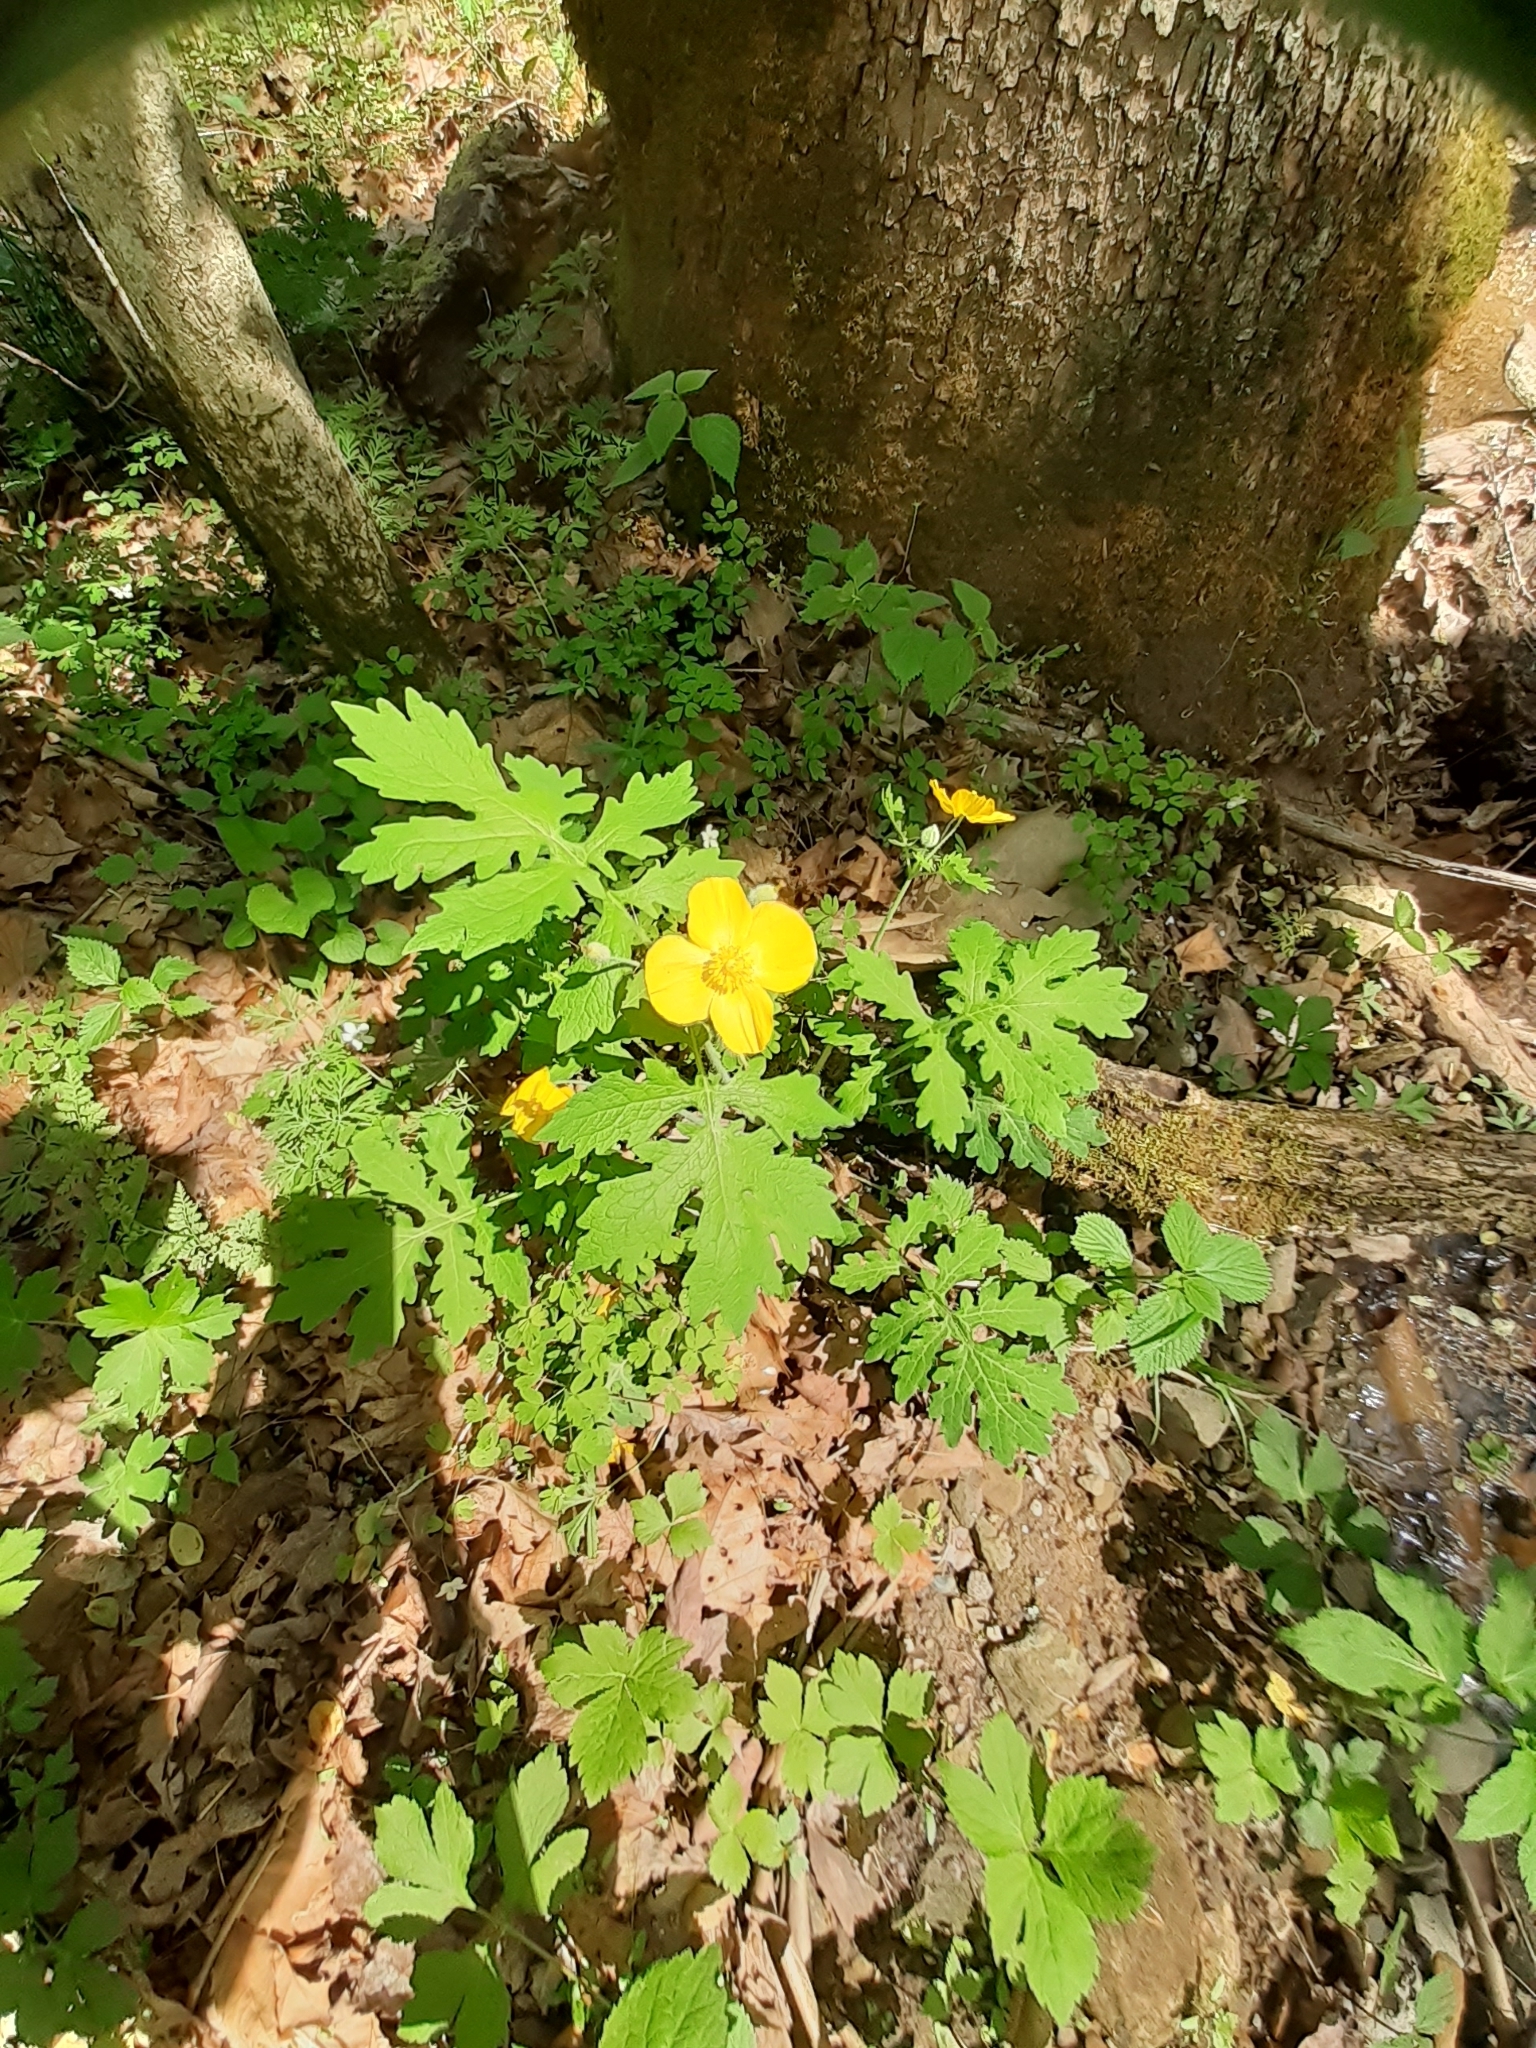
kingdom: Plantae
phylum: Tracheophyta
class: Magnoliopsida
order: Ranunculales
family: Papaveraceae
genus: Stylophorum
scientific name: Stylophorum diphyllum
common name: Celandine poppy
